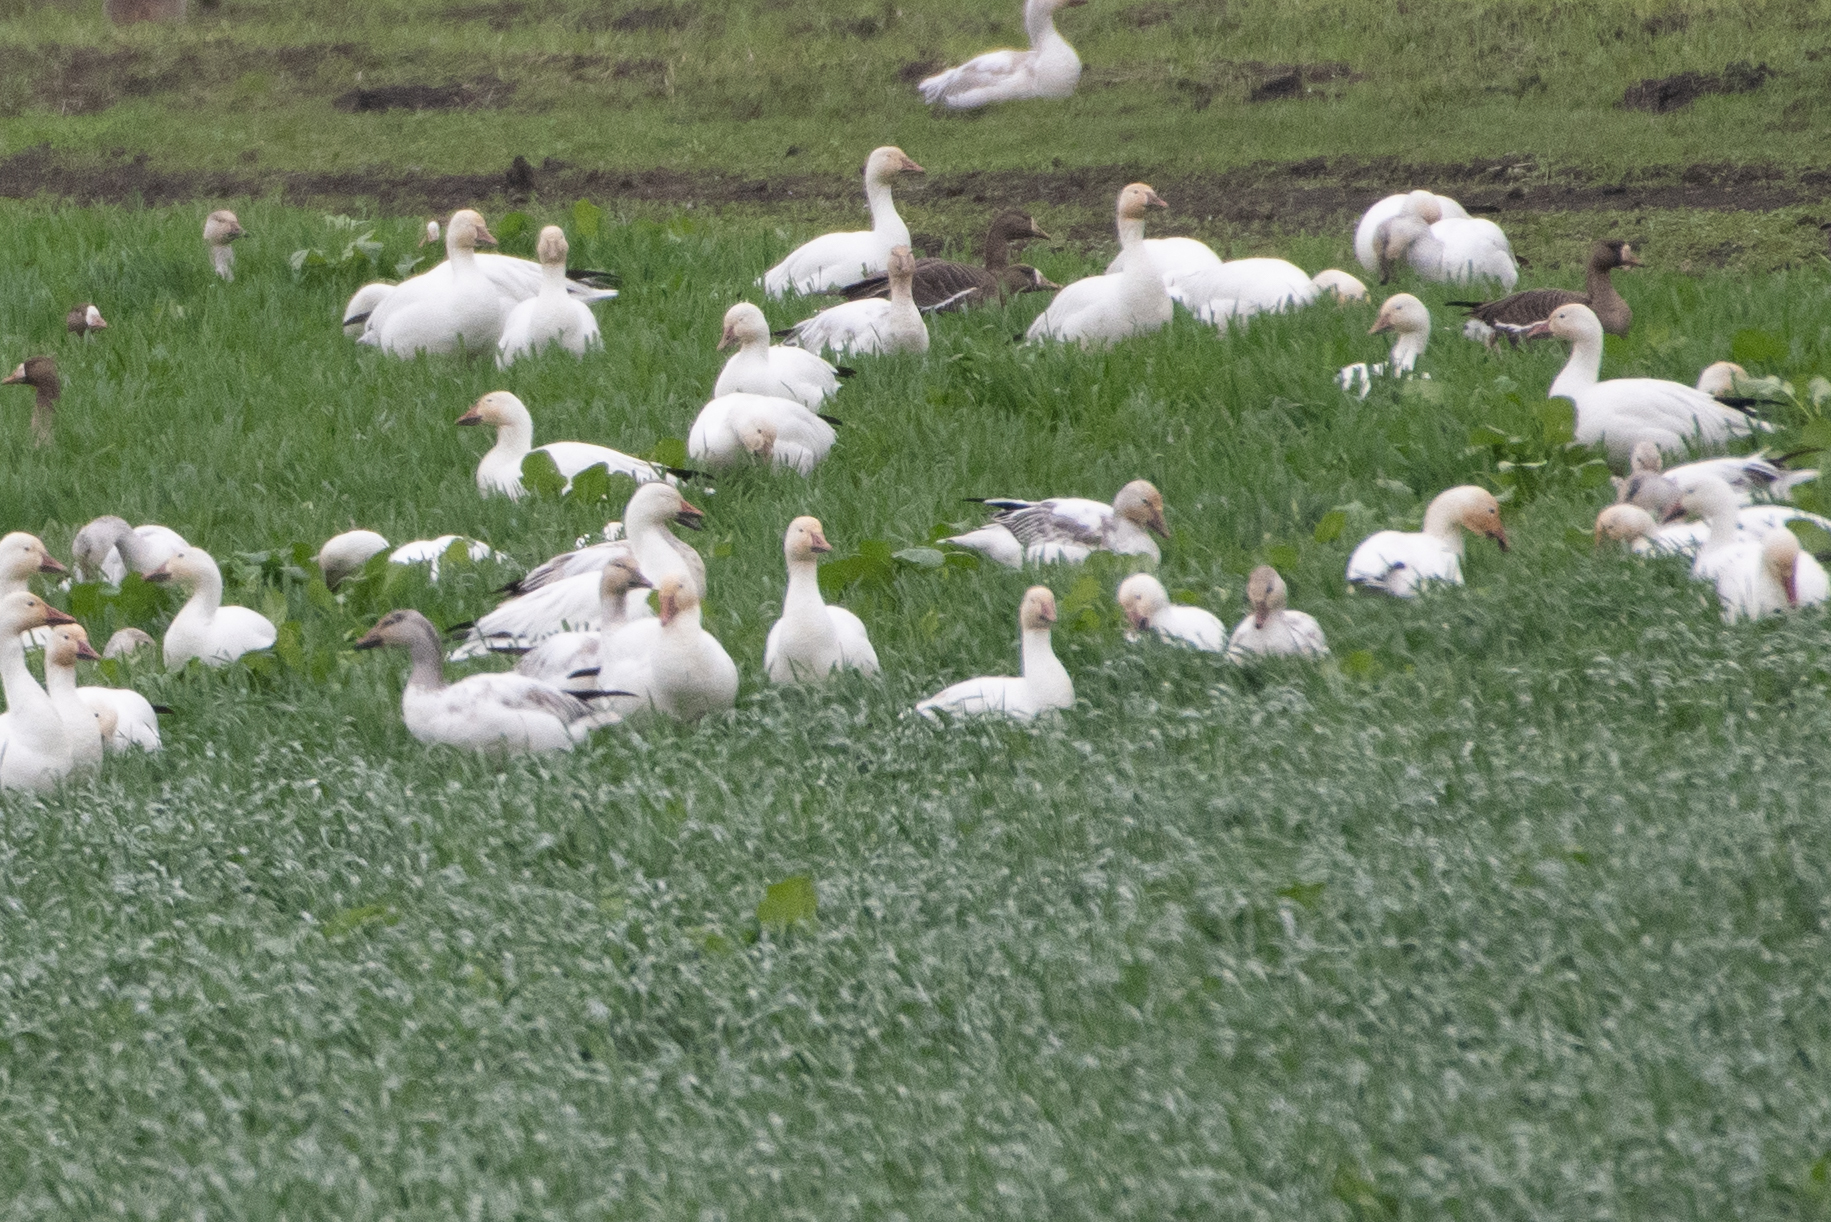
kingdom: Animalia
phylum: Chordata
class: Aves
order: Anseriformes
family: Anatidae
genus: Anser
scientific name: Anser caerulescens
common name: Snow goose
